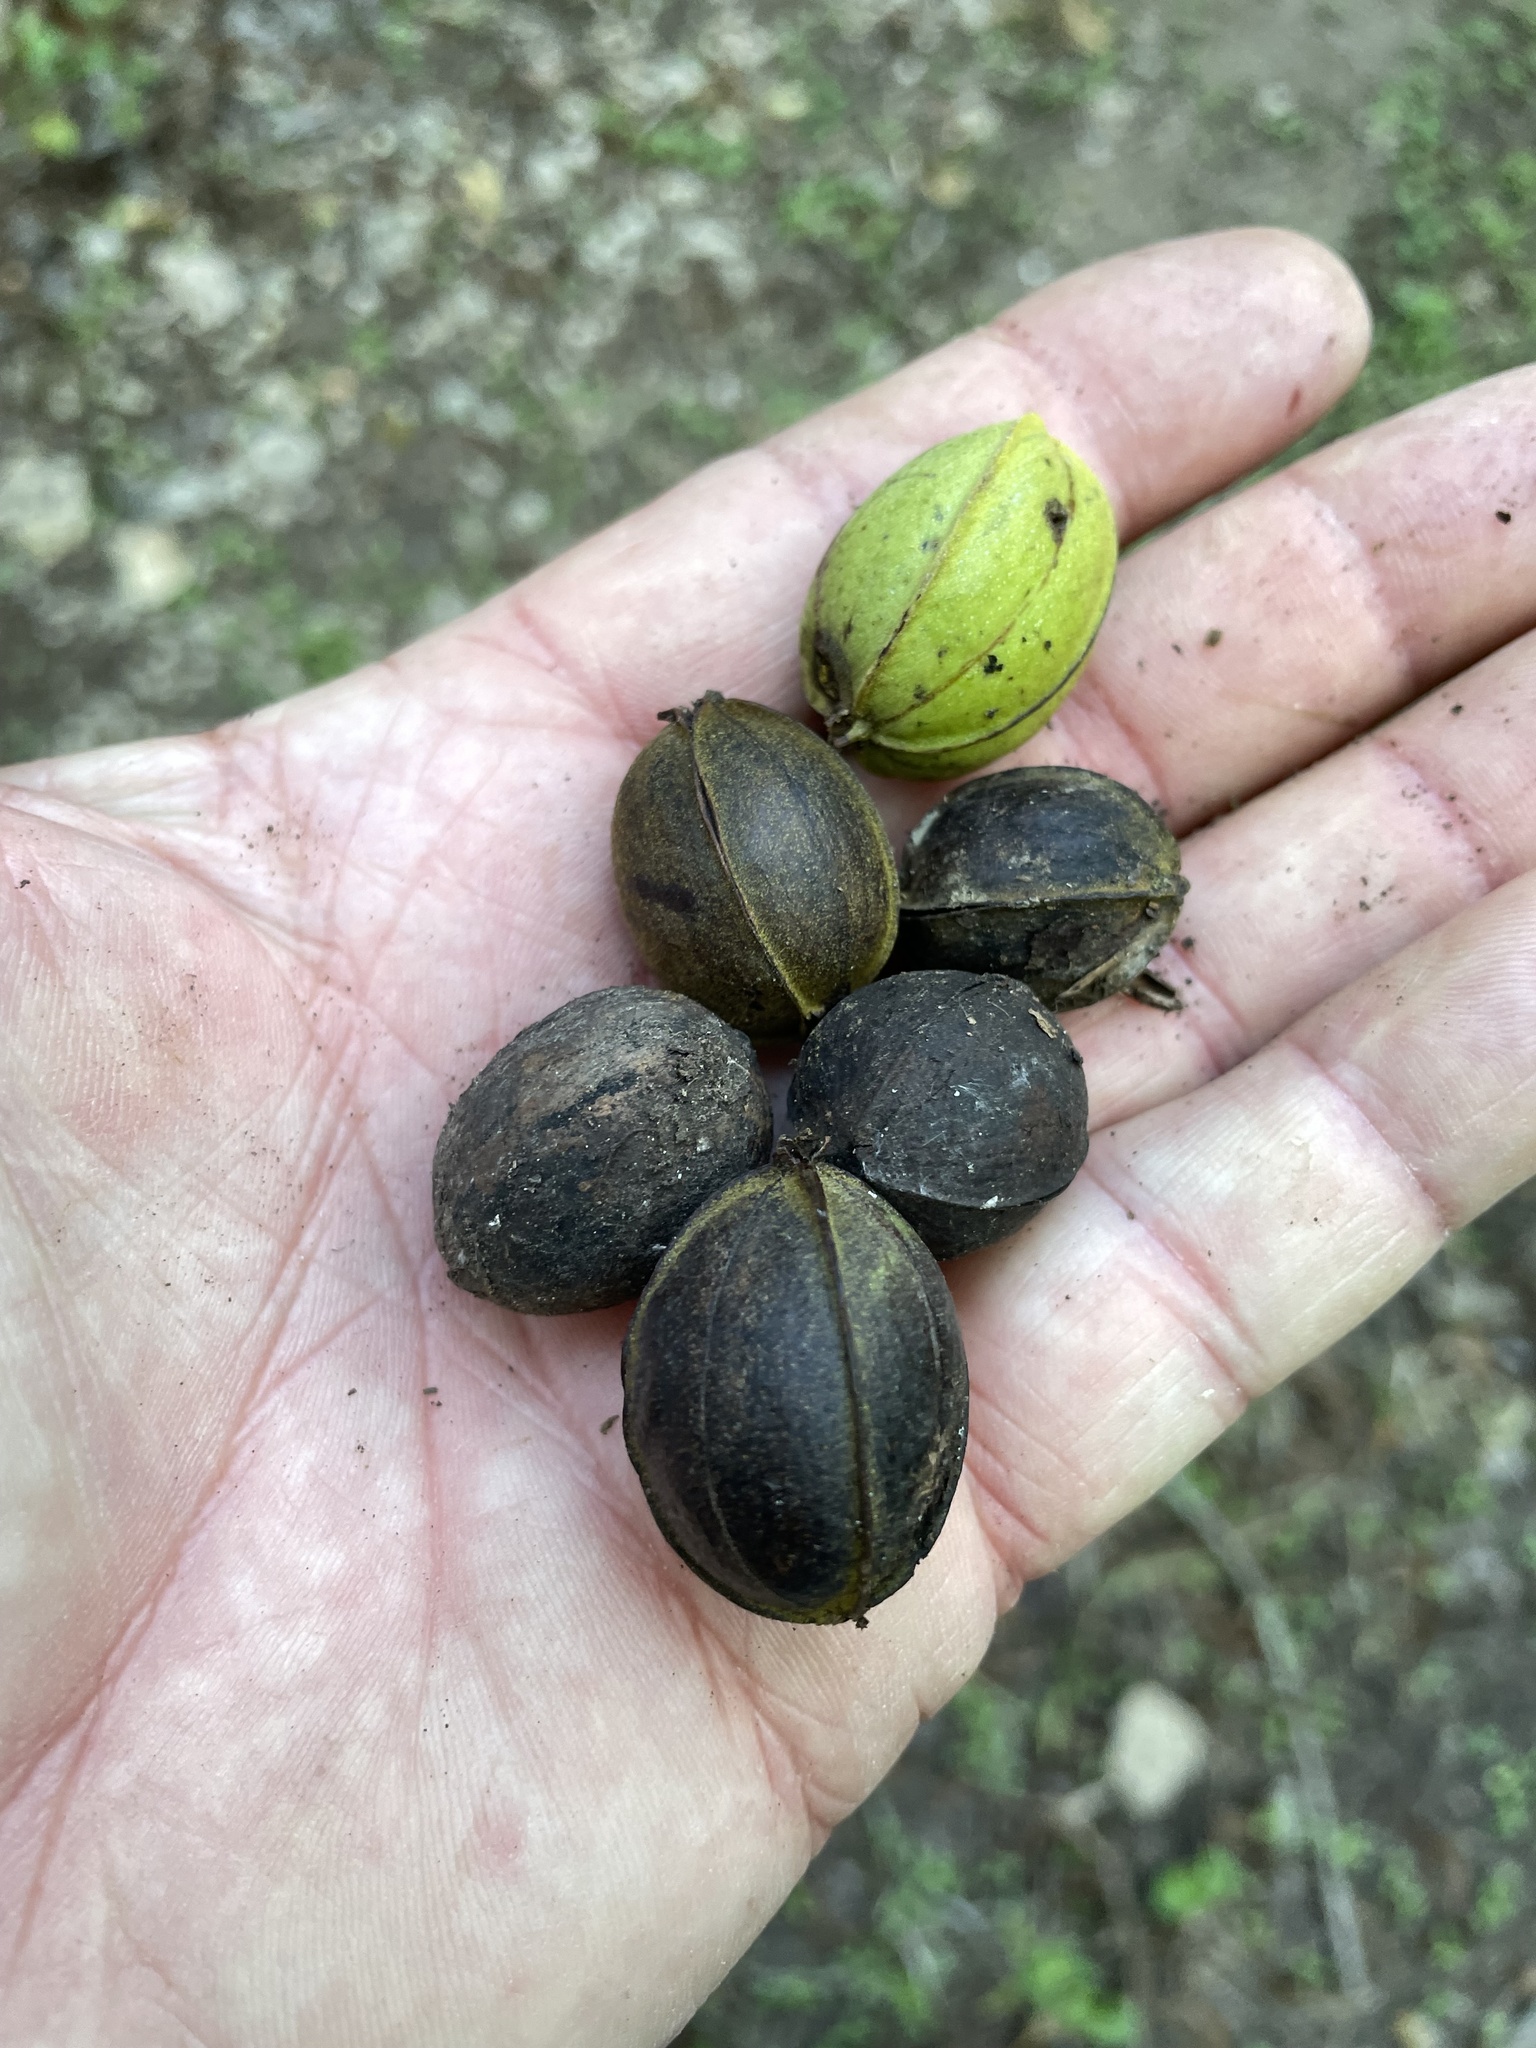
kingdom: Plantae
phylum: Tracheophyta
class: Magnoliopsida
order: Fagales
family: Juglandaceae
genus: Carya
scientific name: Carya illinoinensis
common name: Pecan
